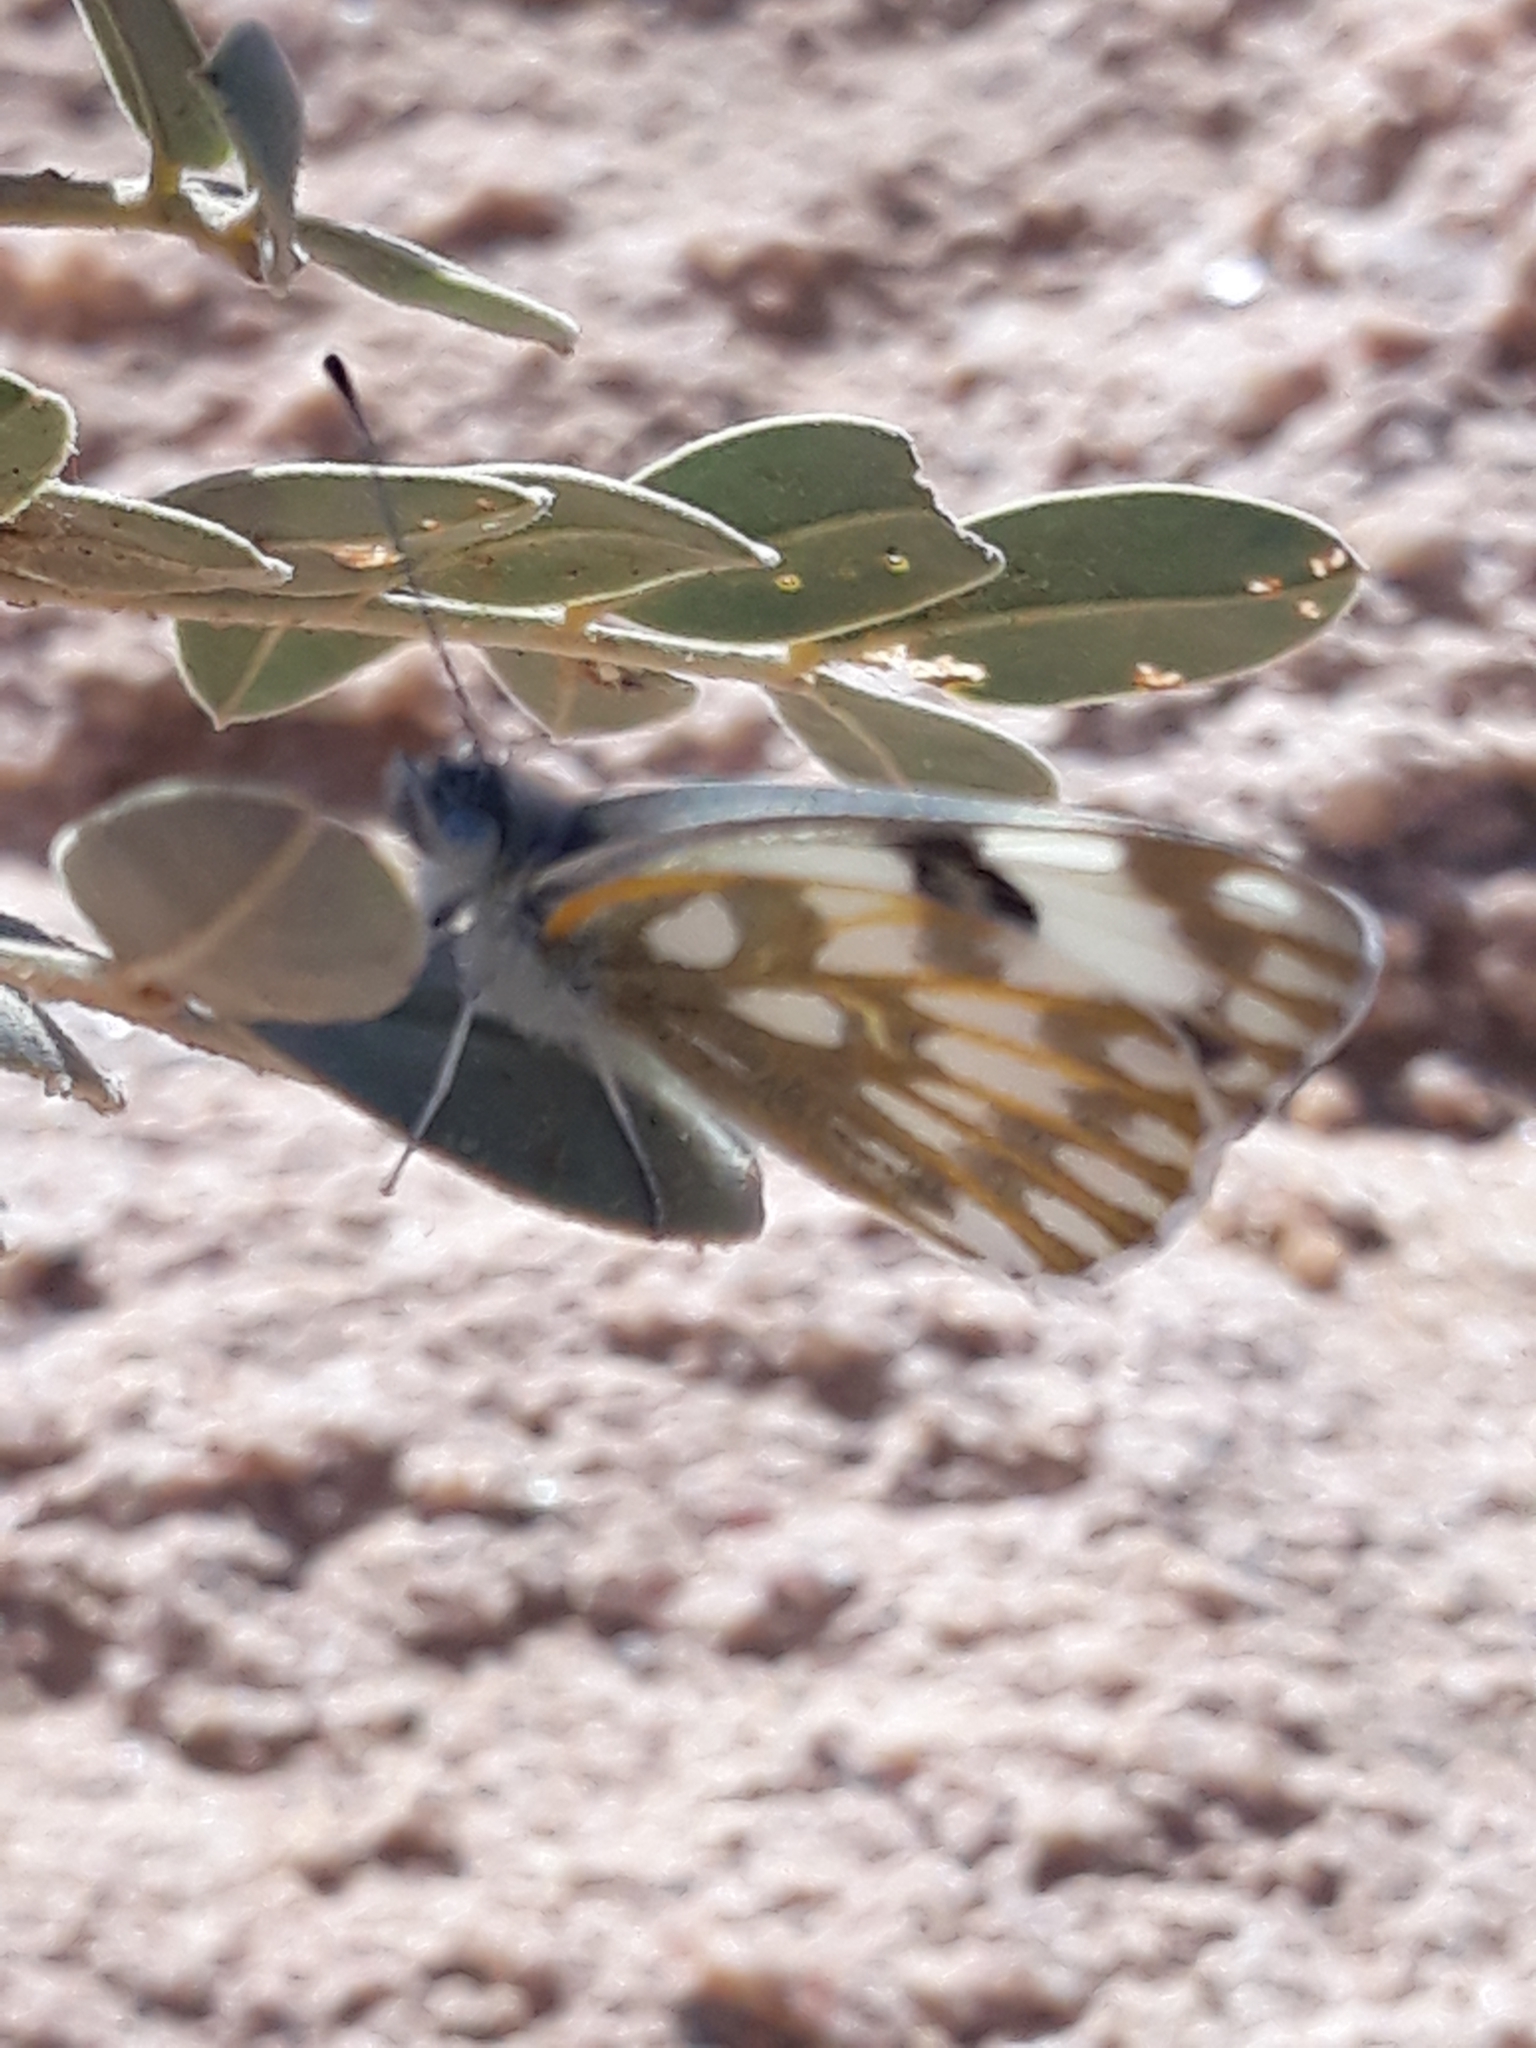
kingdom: Animalia
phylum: Arthropoda
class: Insecta
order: Lepidoptera
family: Pieridae
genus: Pontia
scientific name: Pontia glauconome
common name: Desert bath white
